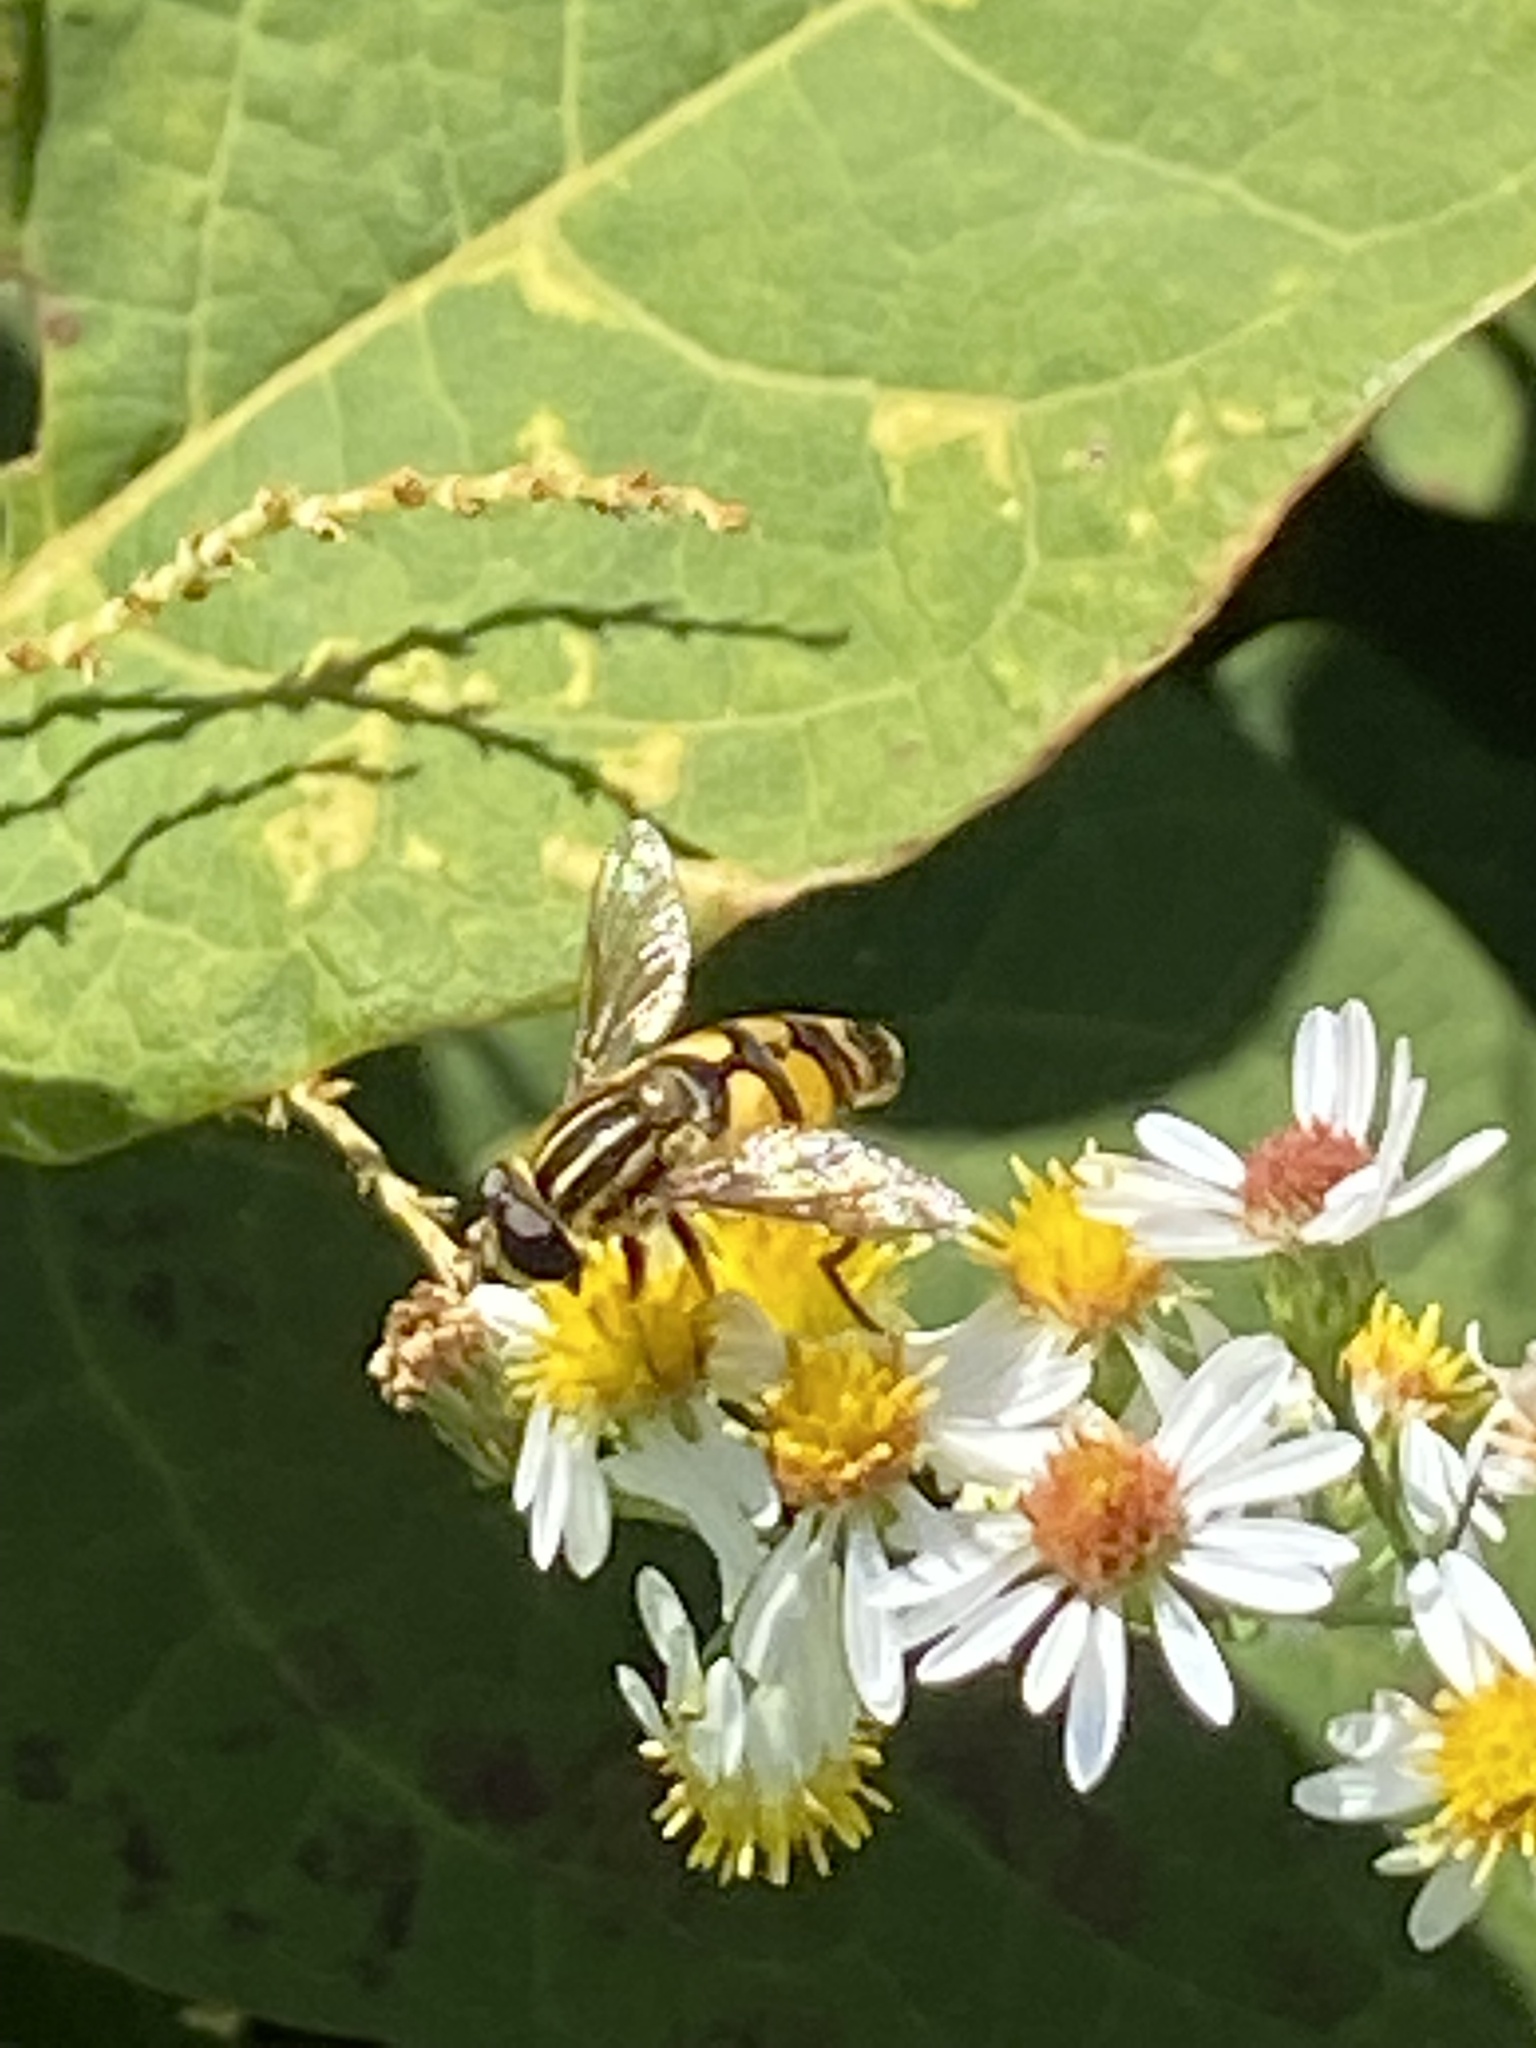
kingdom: Animalia
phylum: Arthropoda
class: Insecta
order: Diptera
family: Syrphidae
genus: Helophilus
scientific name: Helophilus fasciatus
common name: Narrow-headed marsh fly
